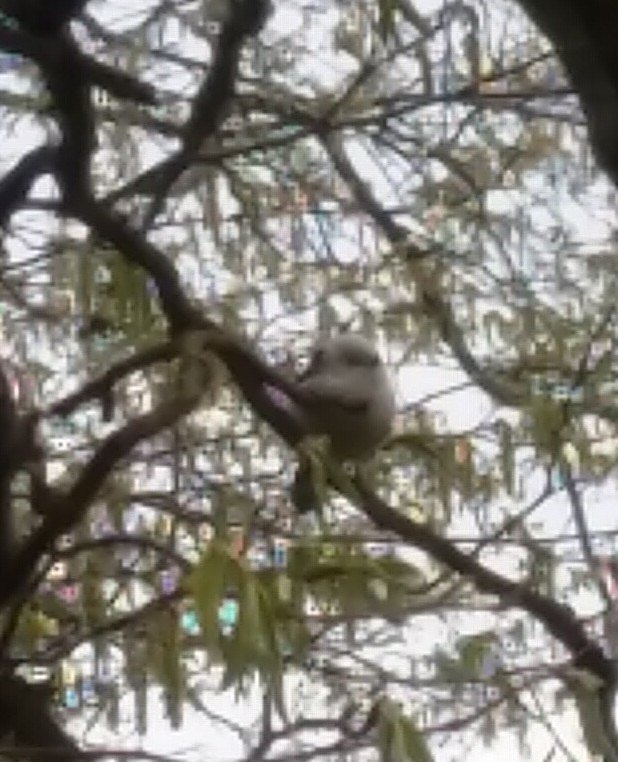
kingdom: Animalia
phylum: Chordata
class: Aves
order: Passeriformes
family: Aegithalidae
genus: Aegithalos
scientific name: Aegithalos caudatus
